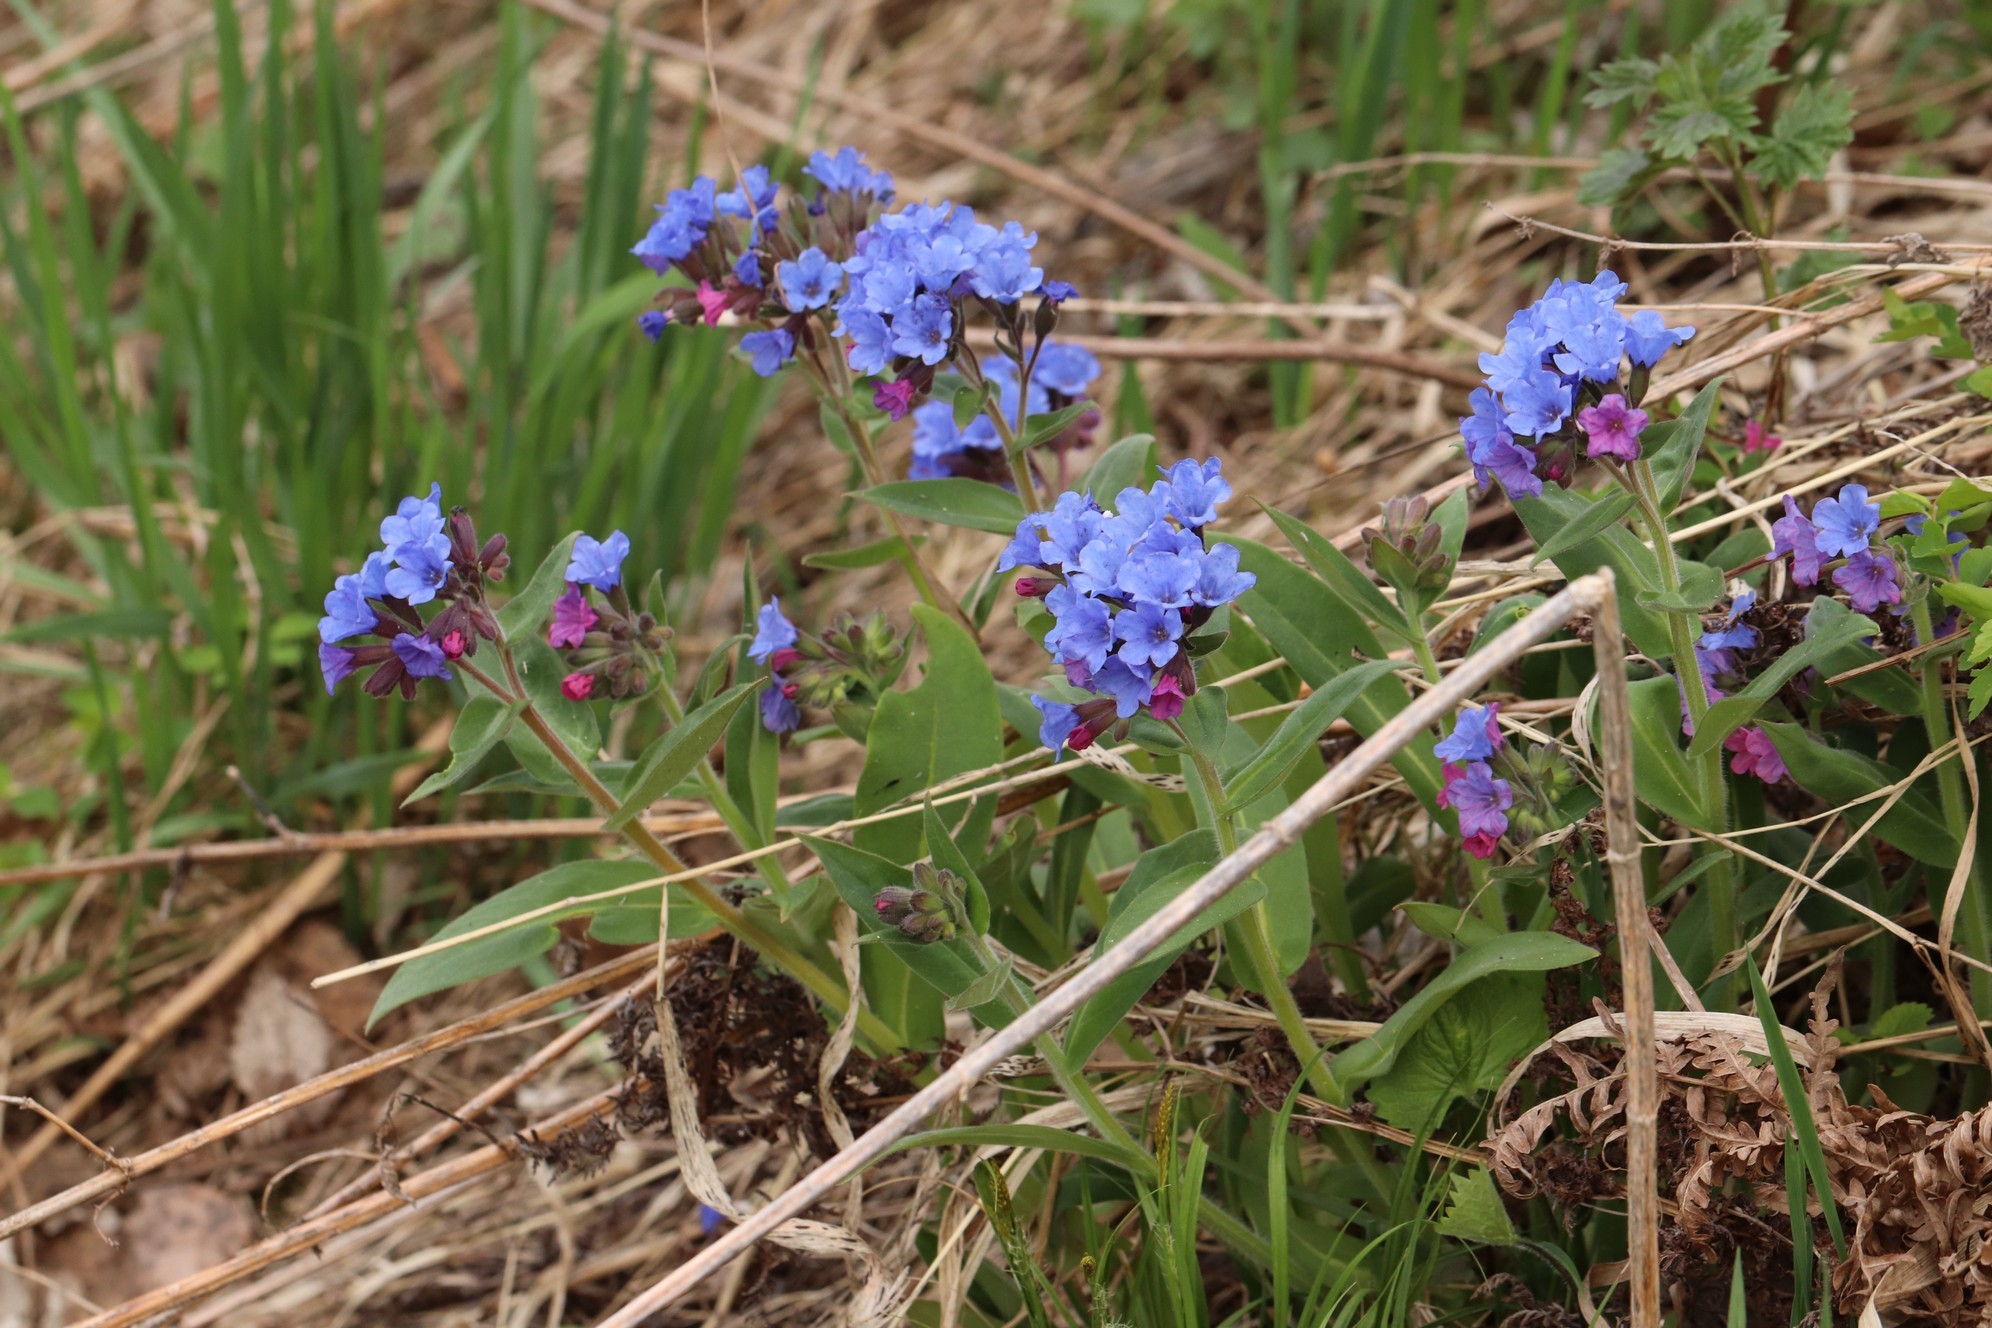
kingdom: Plantae
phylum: Tracheophyta
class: Magnoliopsida
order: Boraginales
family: Boraginaceae
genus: Pulmonaria
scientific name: Pulmonaria mollis
